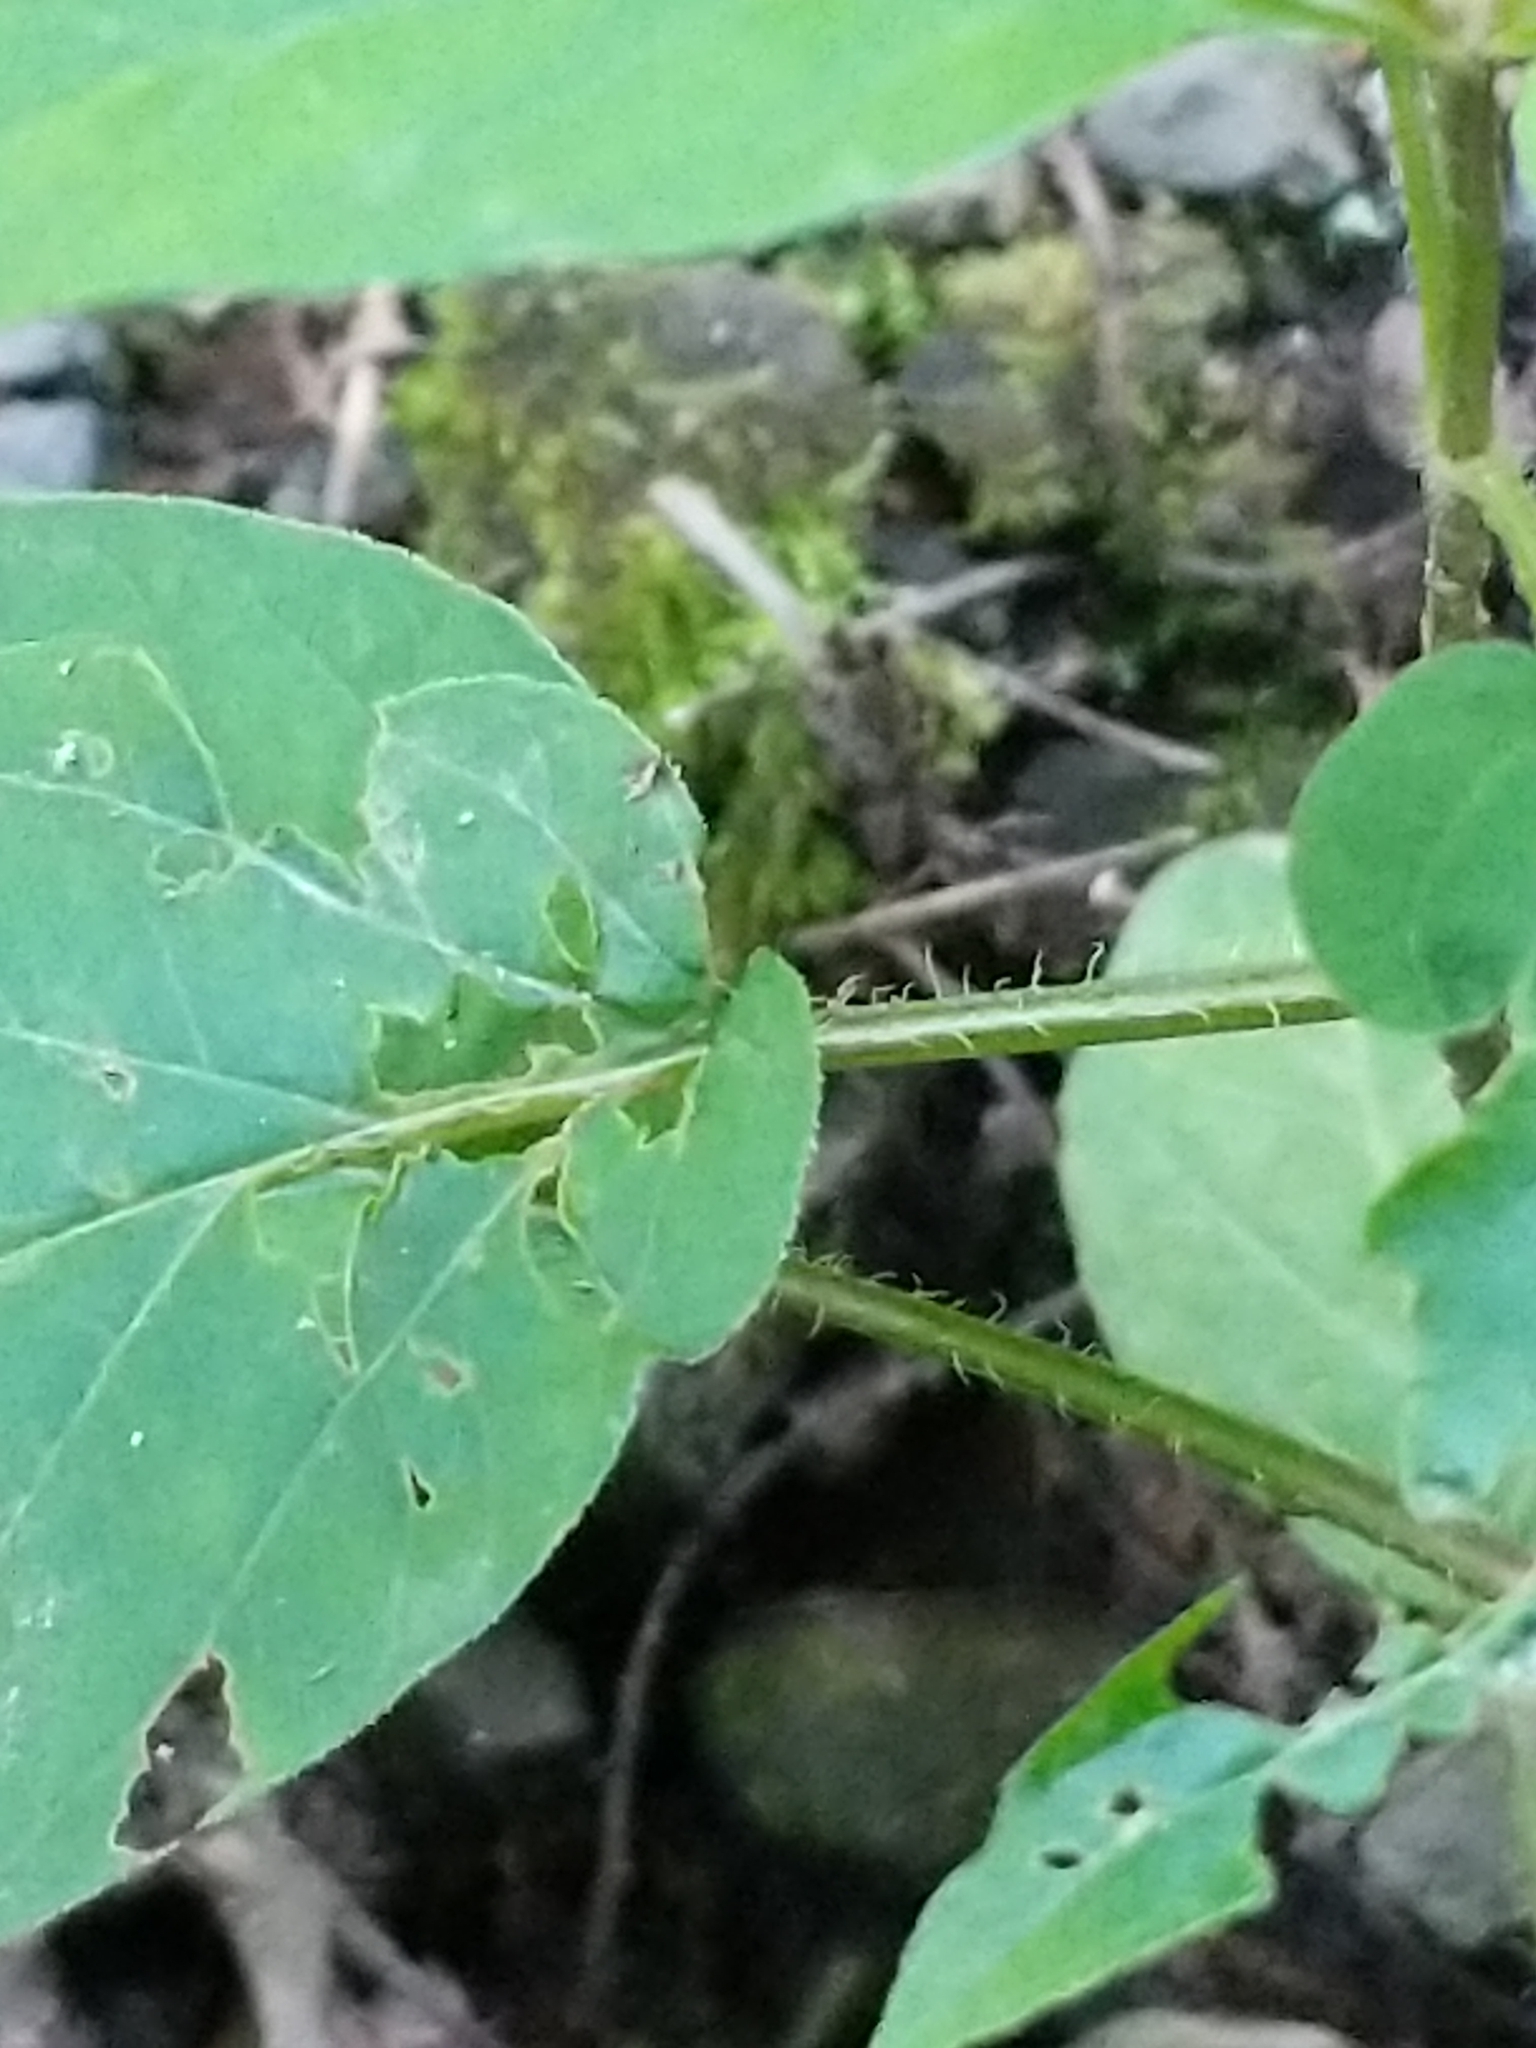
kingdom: Plantae
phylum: Tracheophyta
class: Magnoliopsida
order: Ericales
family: Primulaceae
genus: Lysimachia
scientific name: Lysimachia ciliata
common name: Fringed loosestrife
